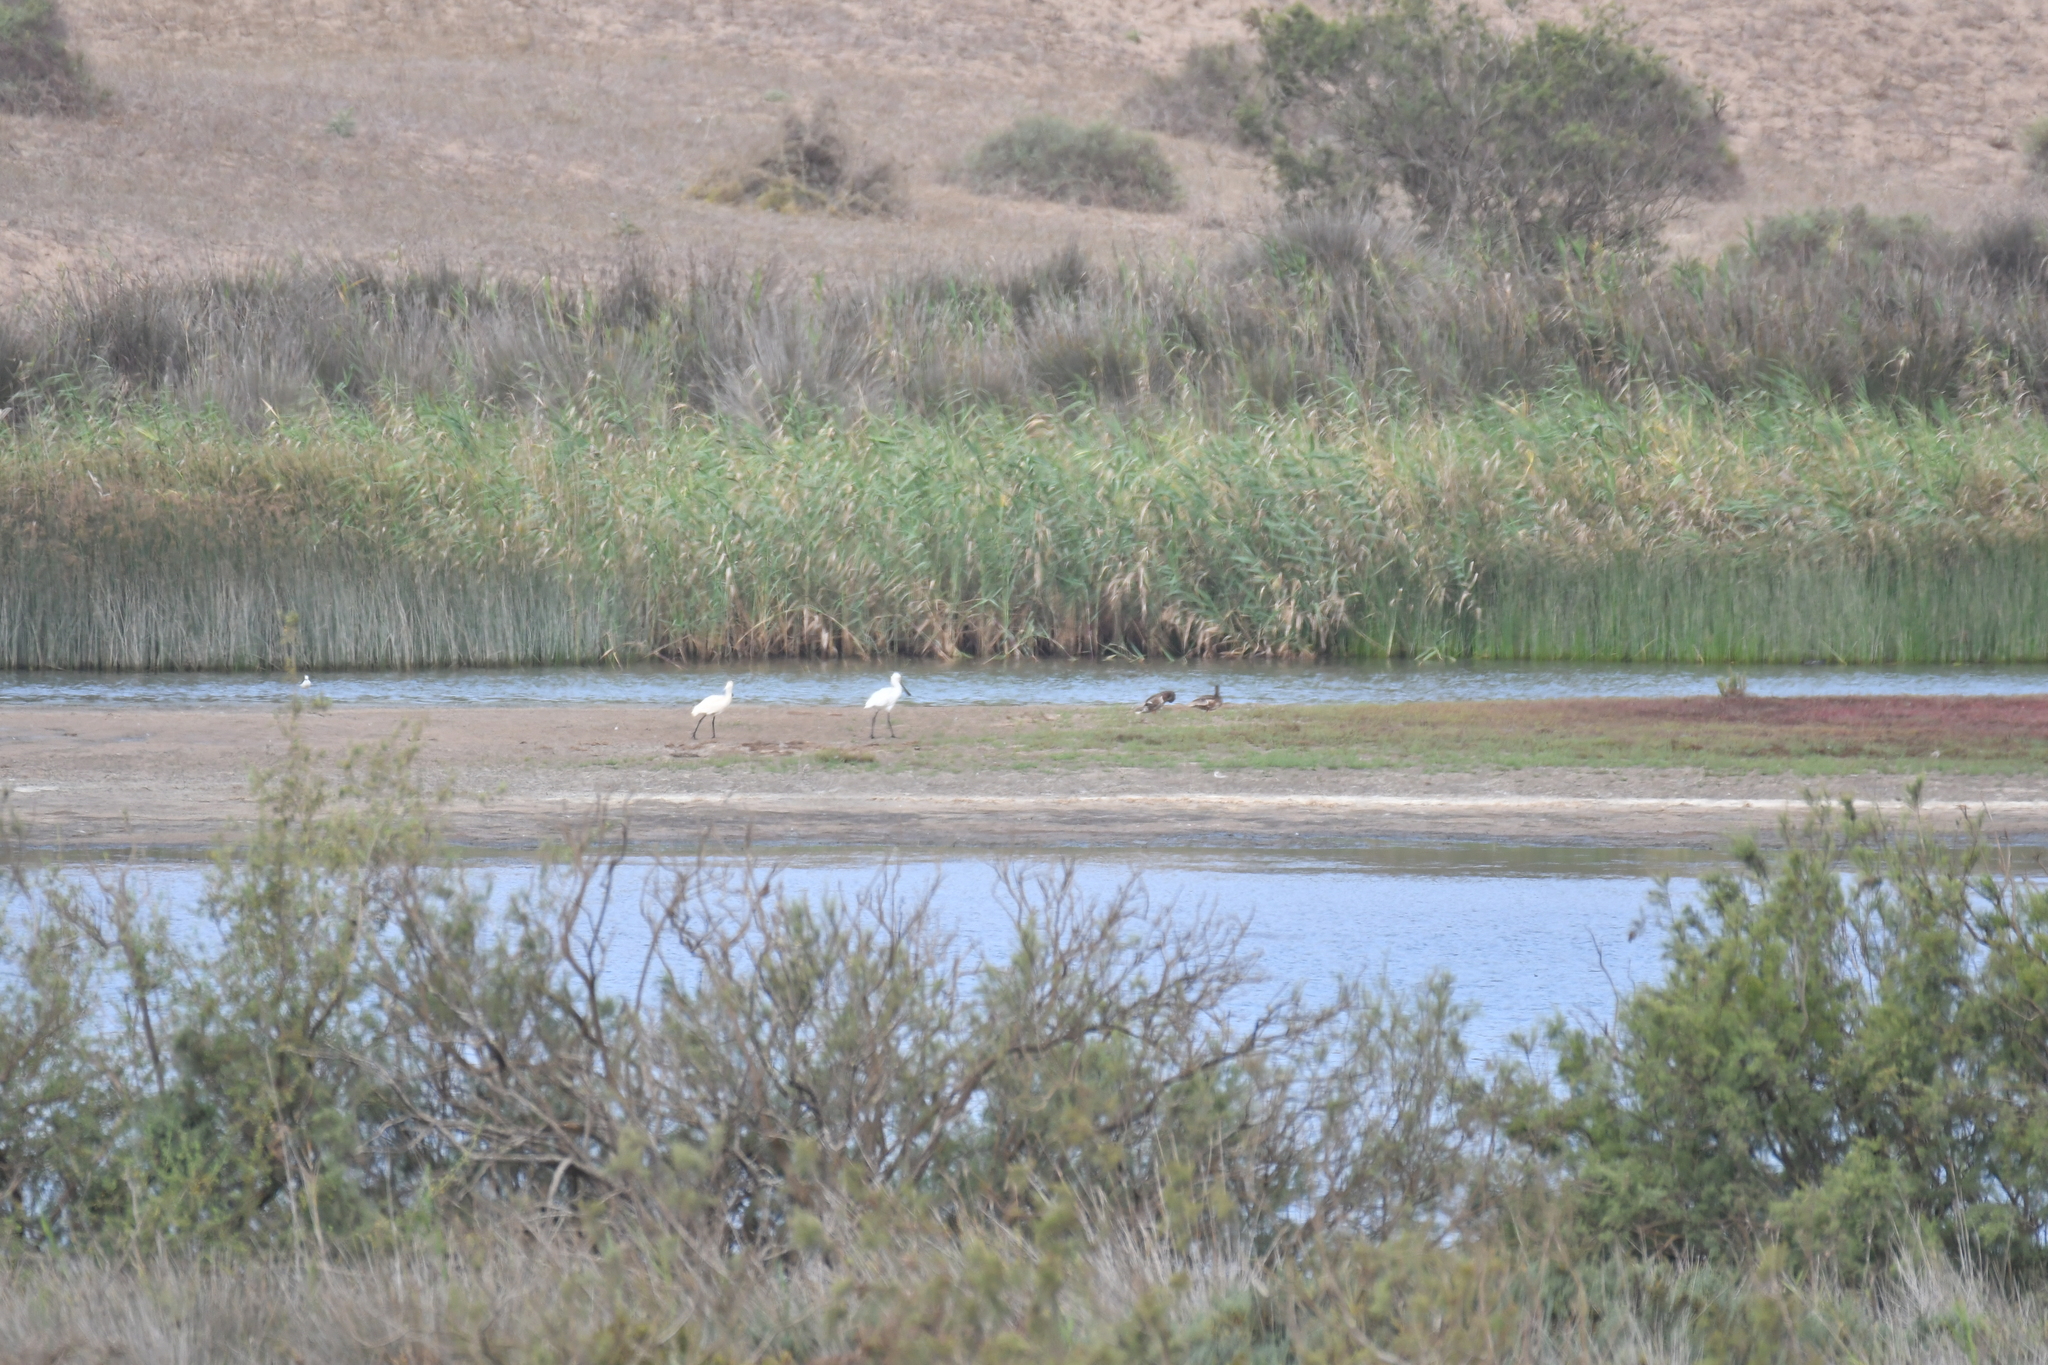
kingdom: Animalia
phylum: Chordata
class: Aves
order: Pelecaniformes
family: Threskiornithidae
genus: Platalea
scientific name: Platalea leucorodia
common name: Eurasian spoonbill
